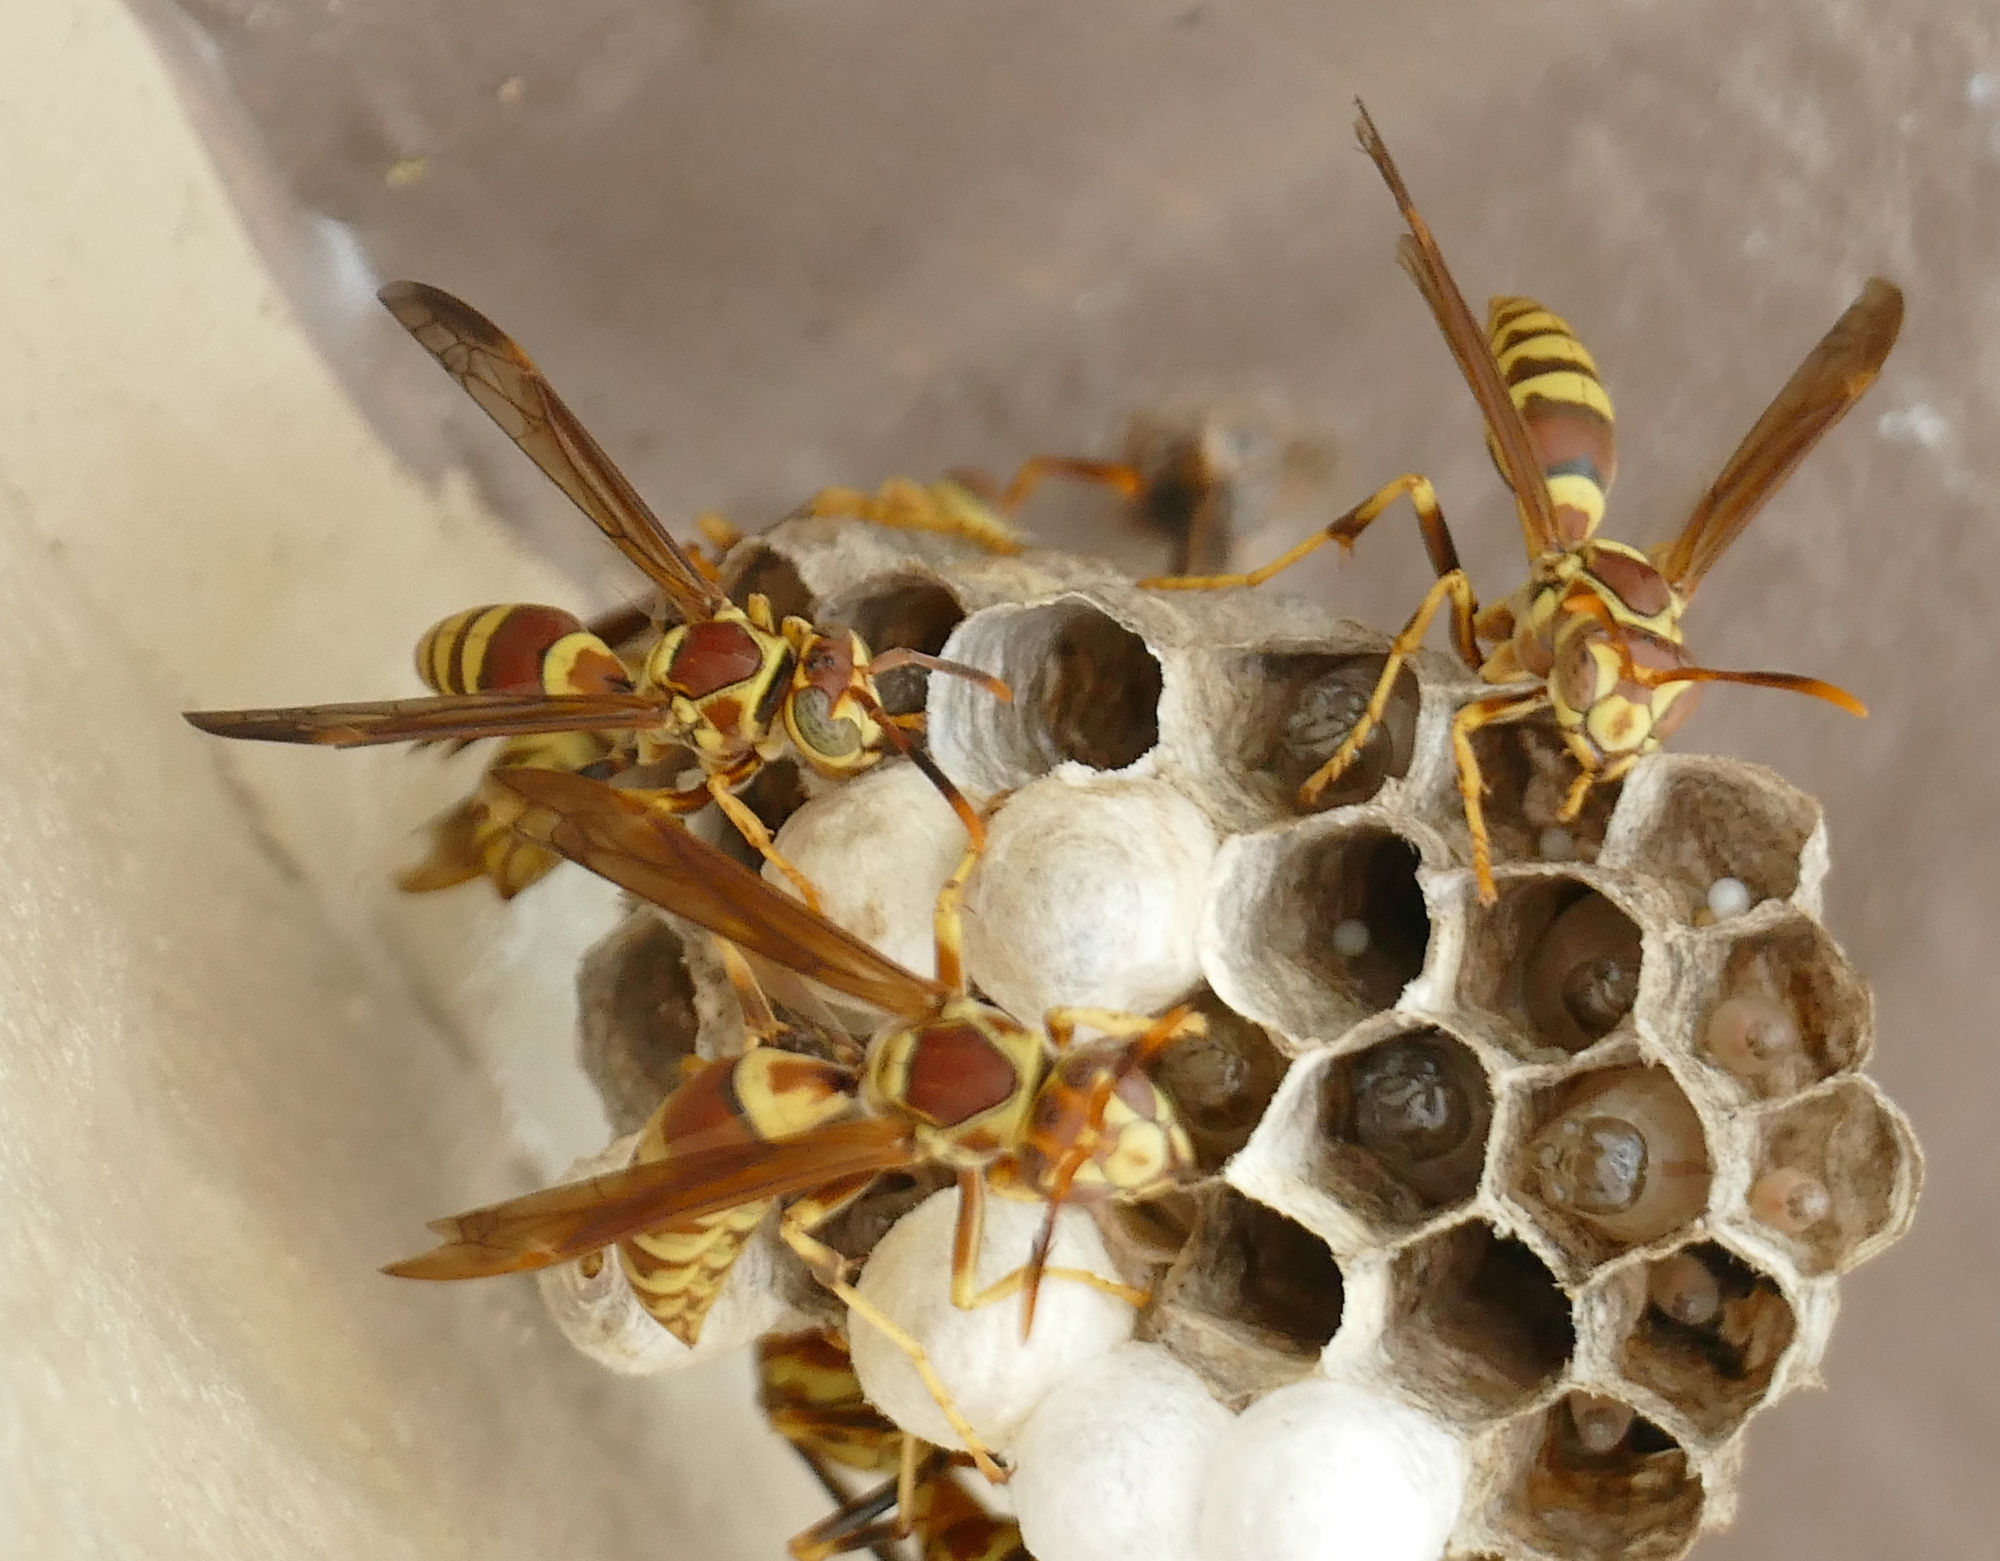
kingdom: Animalia
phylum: Arthropoda
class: Insecta
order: Hymenoptera
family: Eumenidae
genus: Polistes
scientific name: Polistes exclamans
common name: Paper wasp
